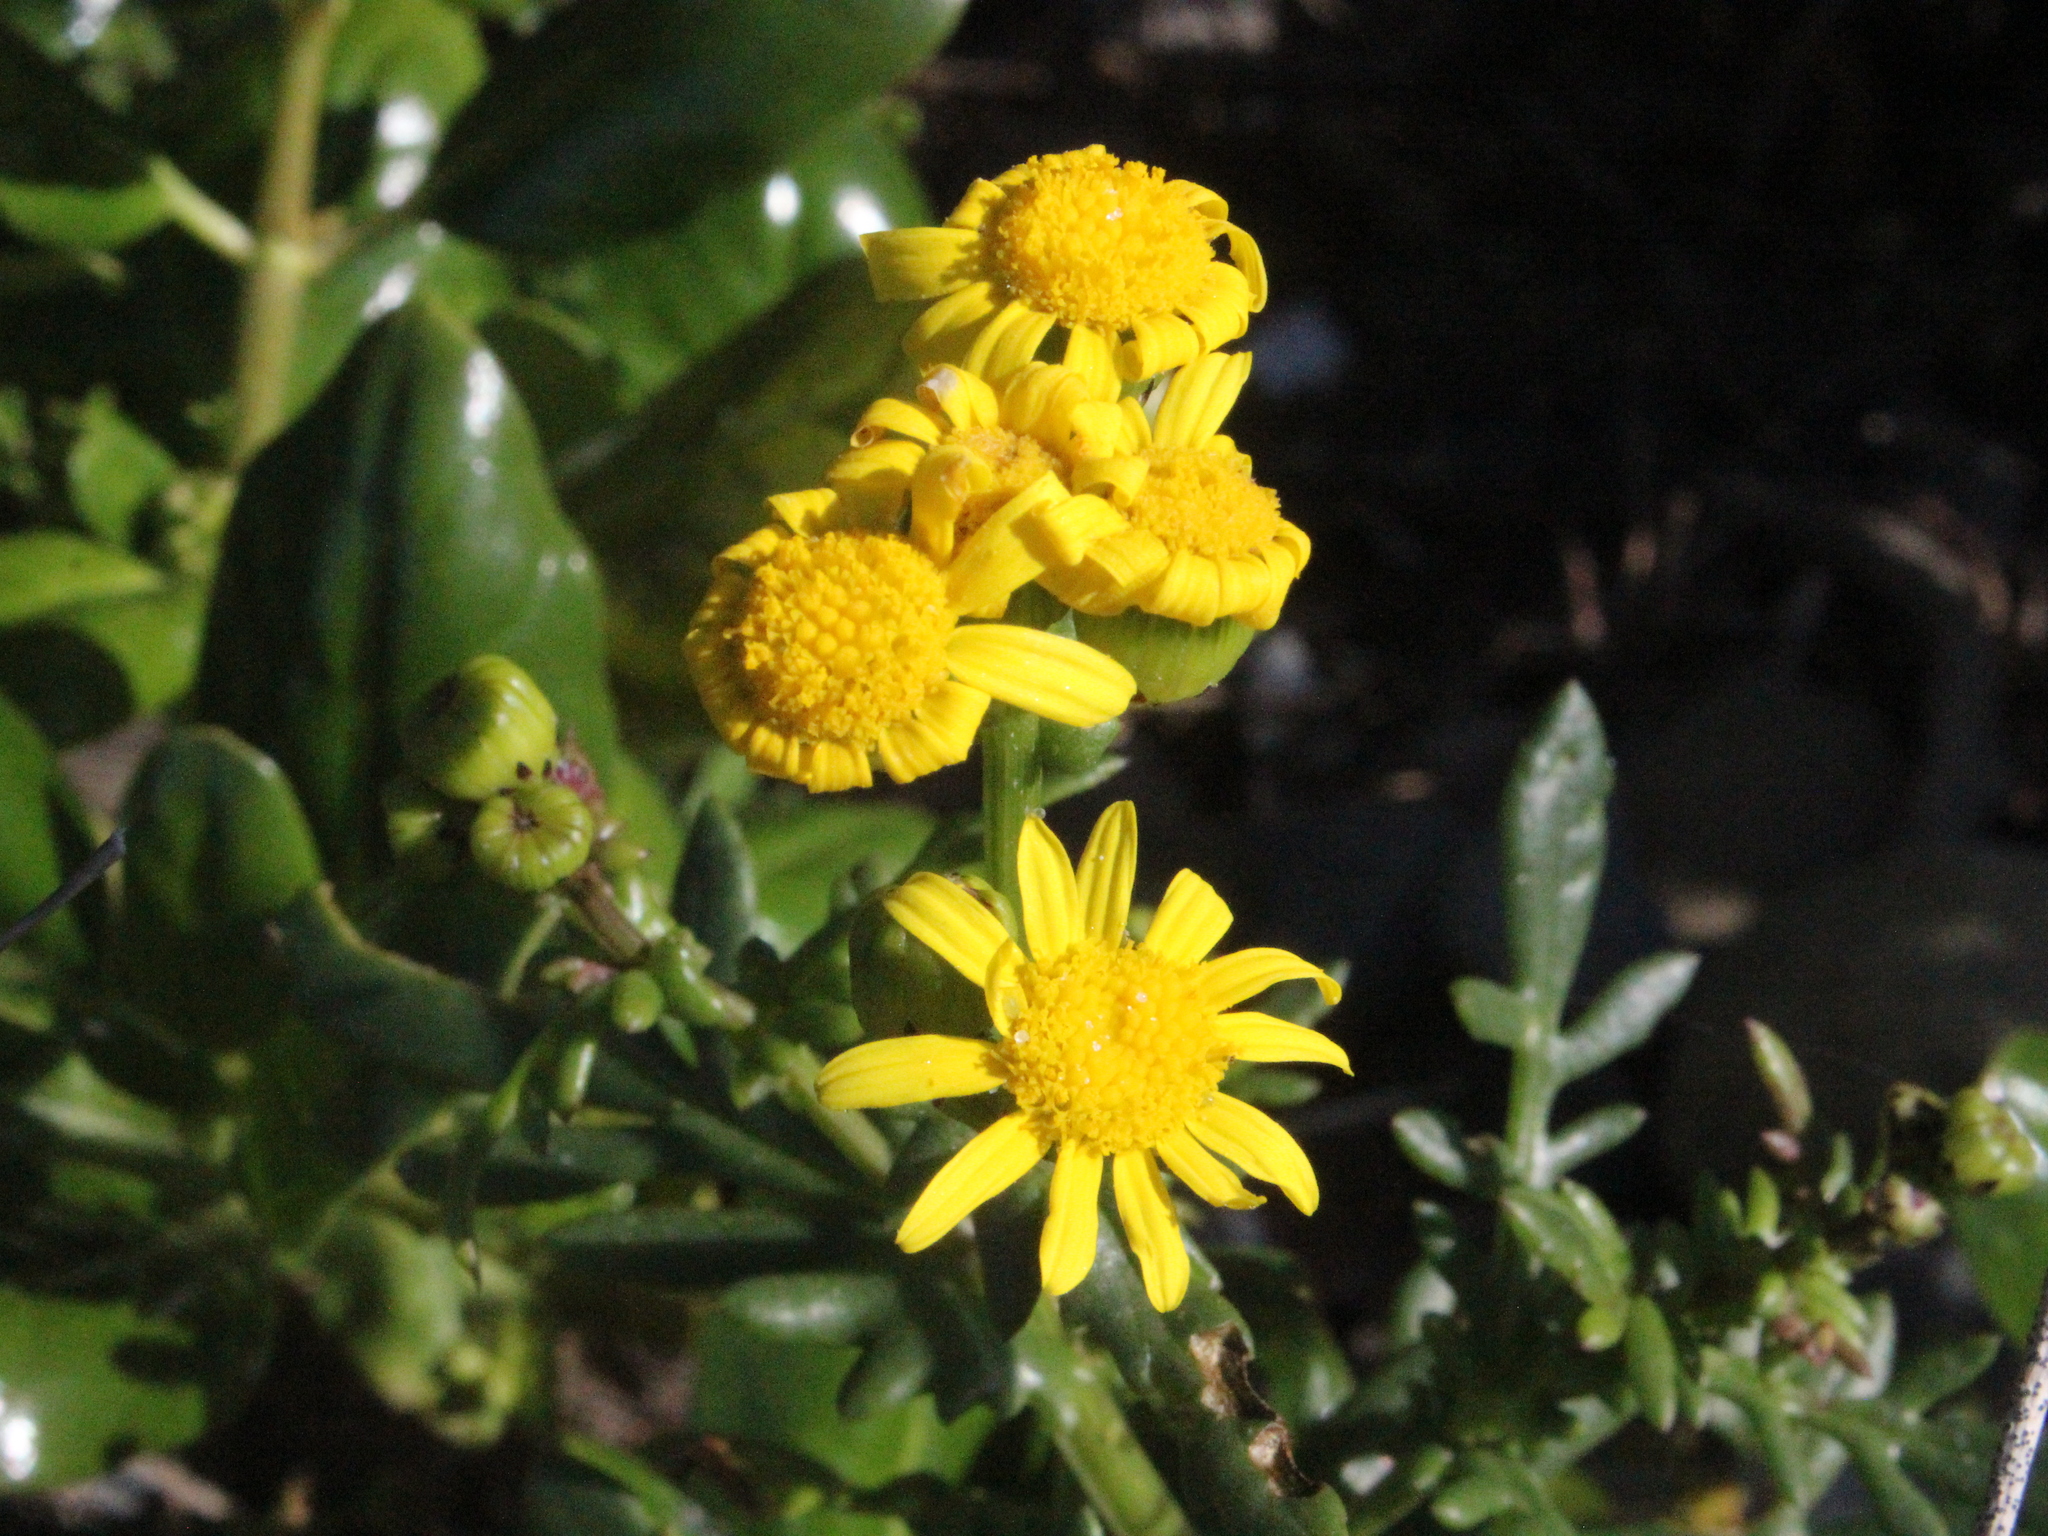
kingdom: Plantae
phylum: Tracheophyta
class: Magnoliopsida
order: Asterales
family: Asteraceae
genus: Senecio
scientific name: Senecio lautus
